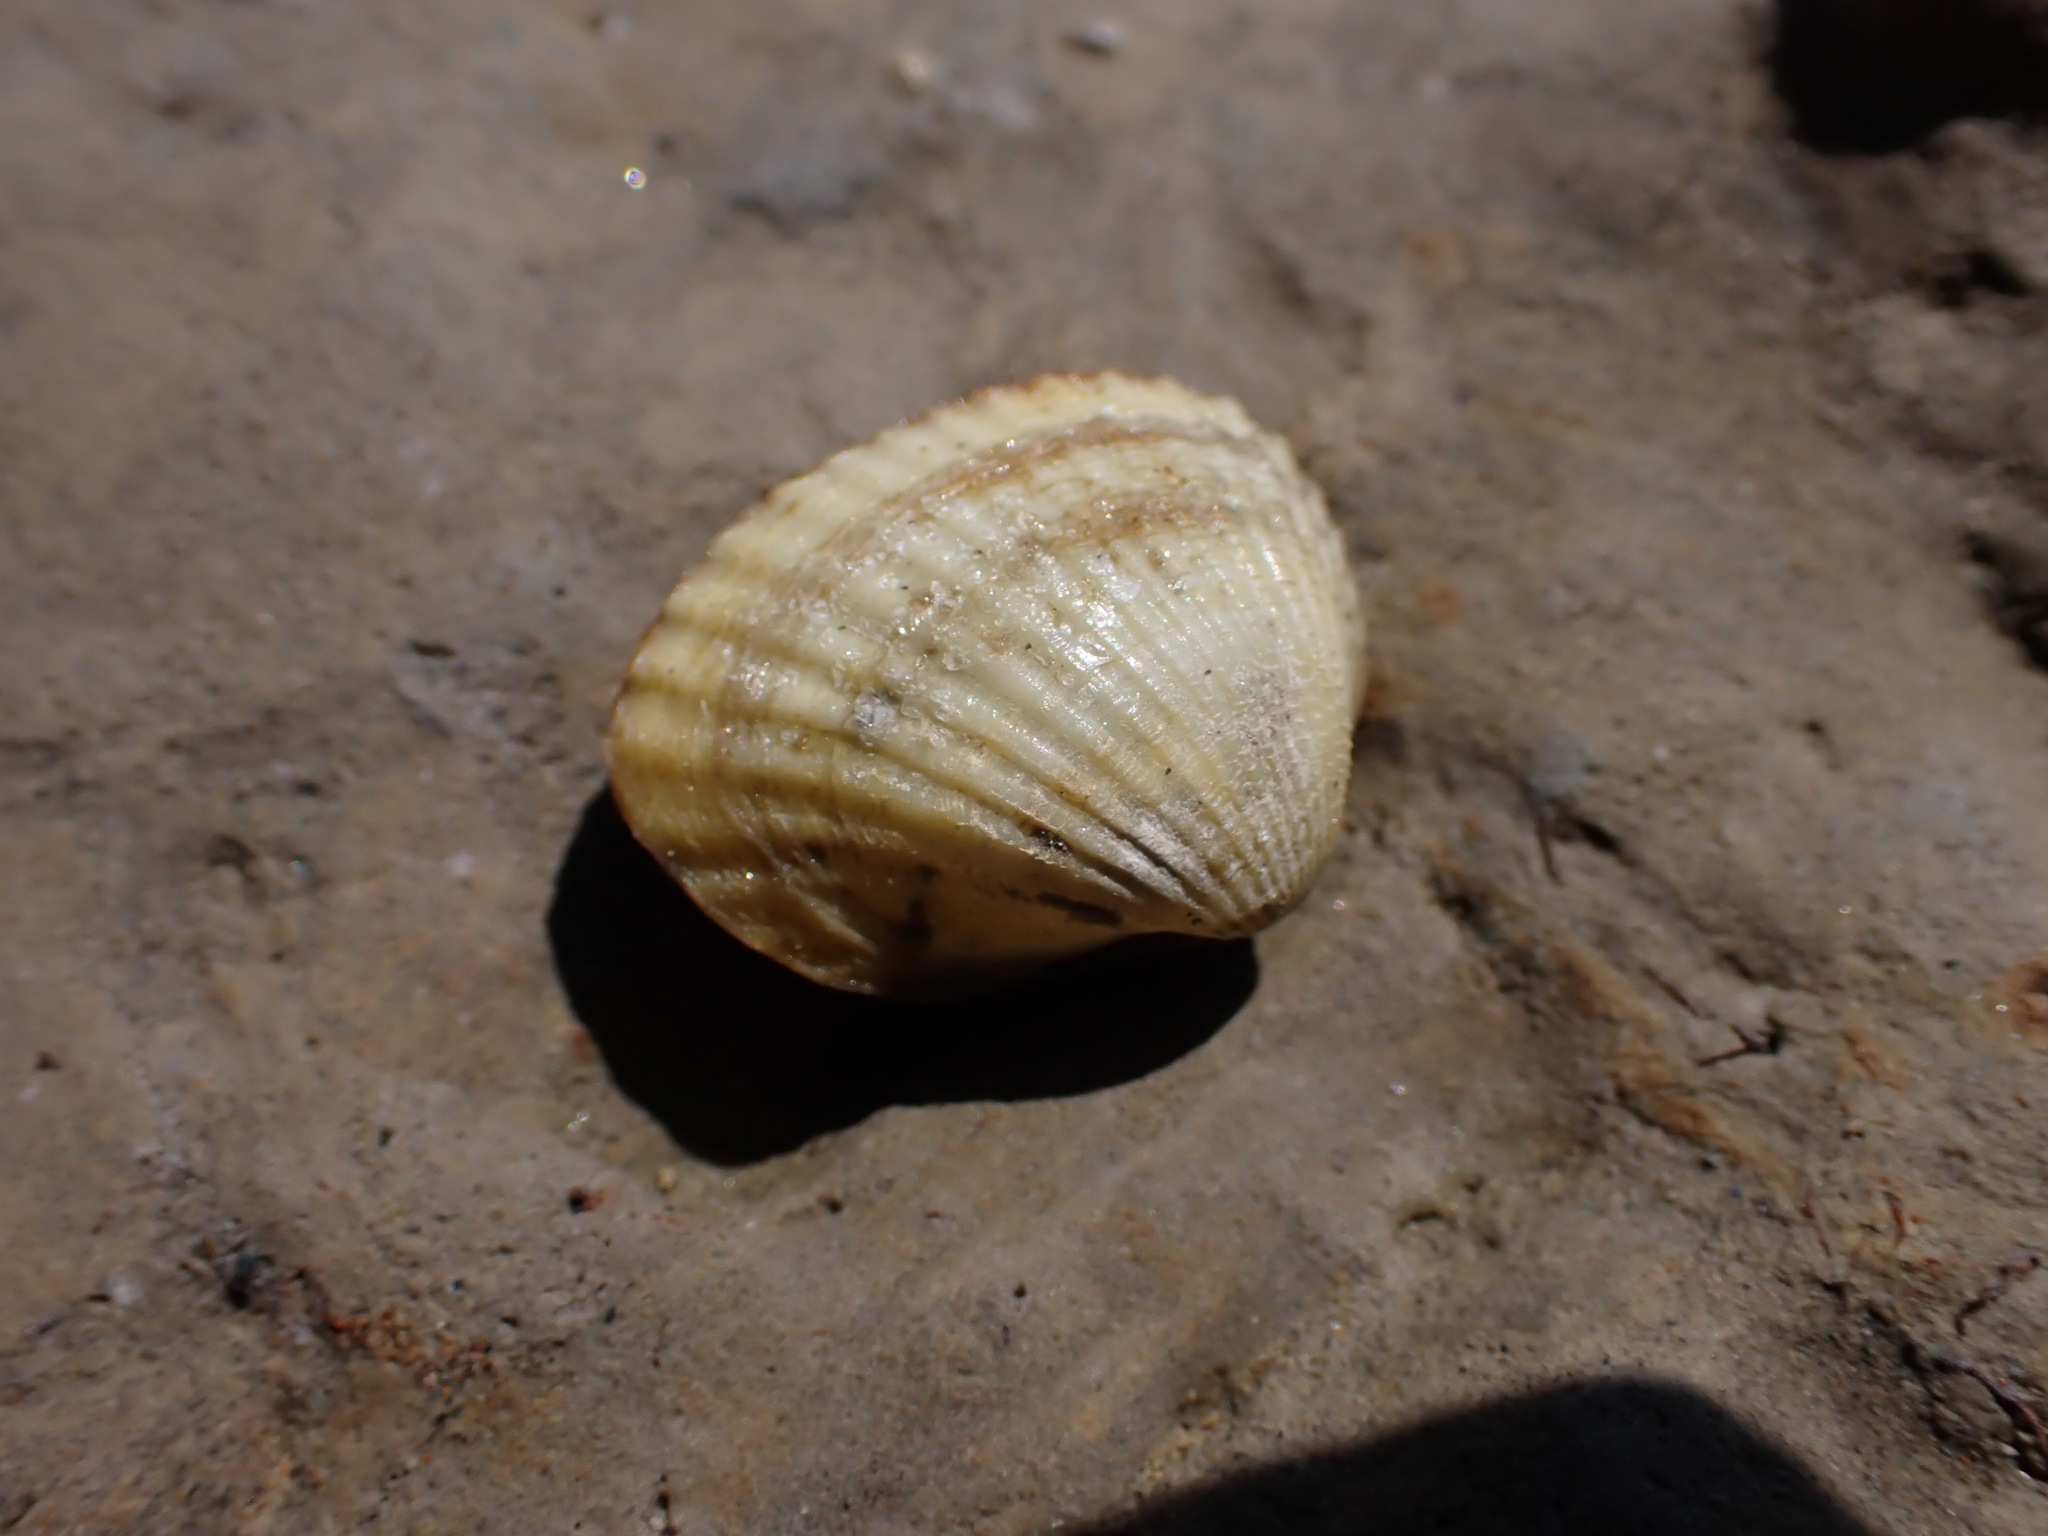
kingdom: Animalia
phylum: Mollusca
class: Bivalvia
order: Cardiida
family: Cardiidae
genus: Cerastoderma
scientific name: Cerastoderma glaucum
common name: Lagoon cockle
